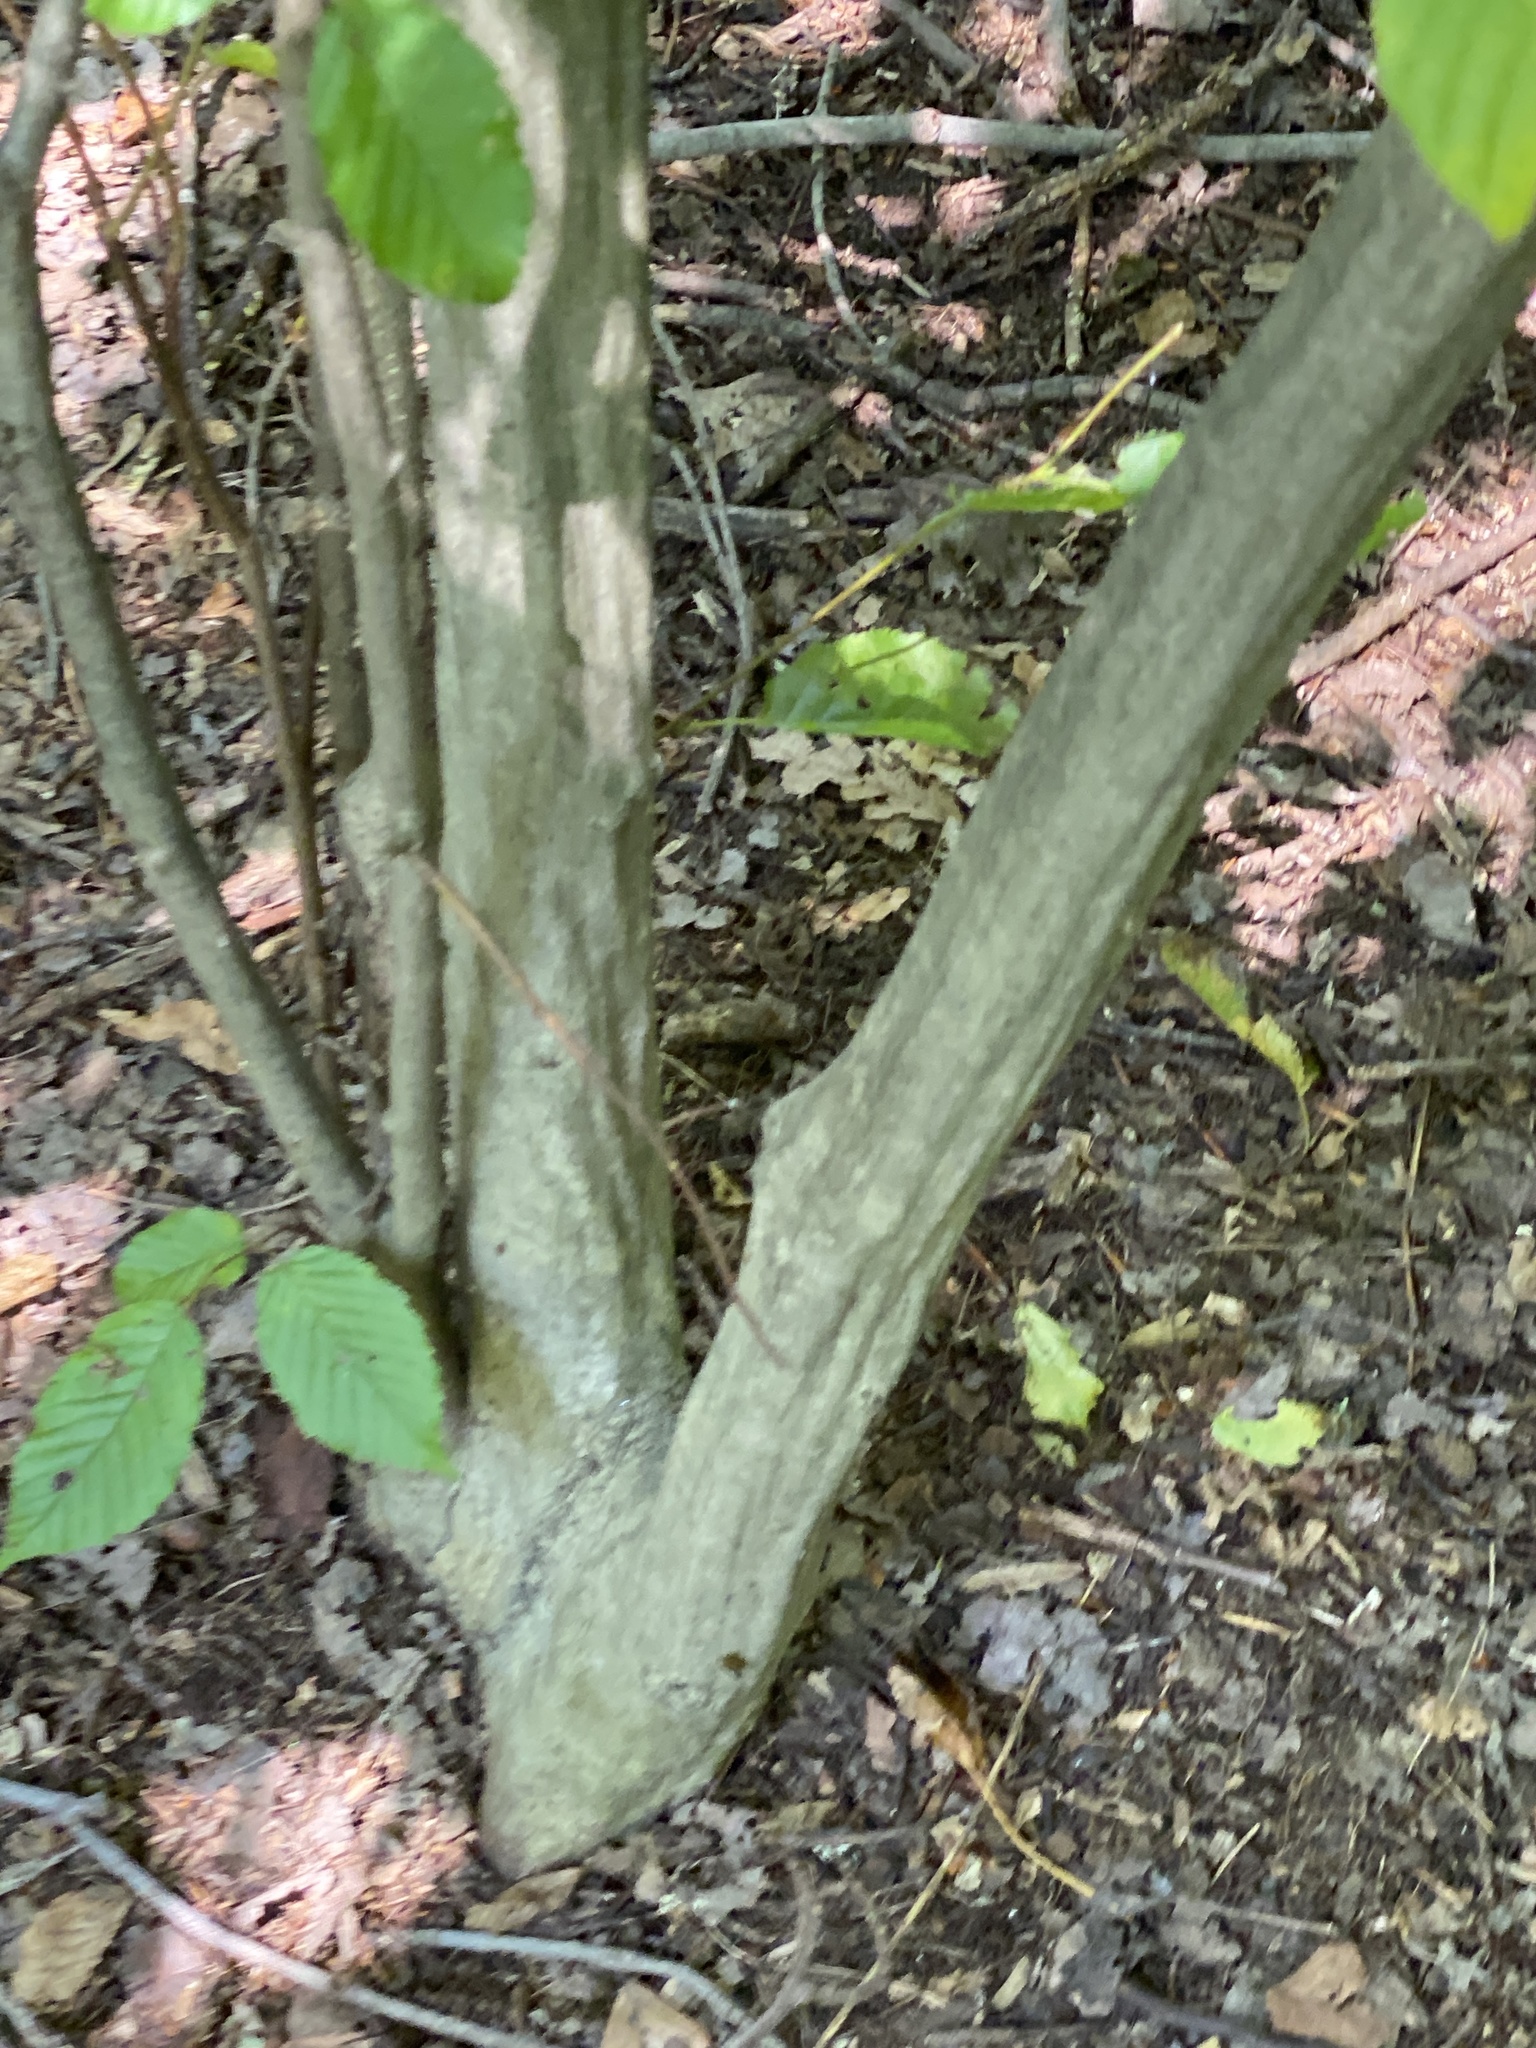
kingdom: Plantae
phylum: Tracheophyta
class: Magnoliopsida
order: Fagales
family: Betulaceae
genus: Carpinus
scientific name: Carpinus caroliniana
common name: American hornbeam
